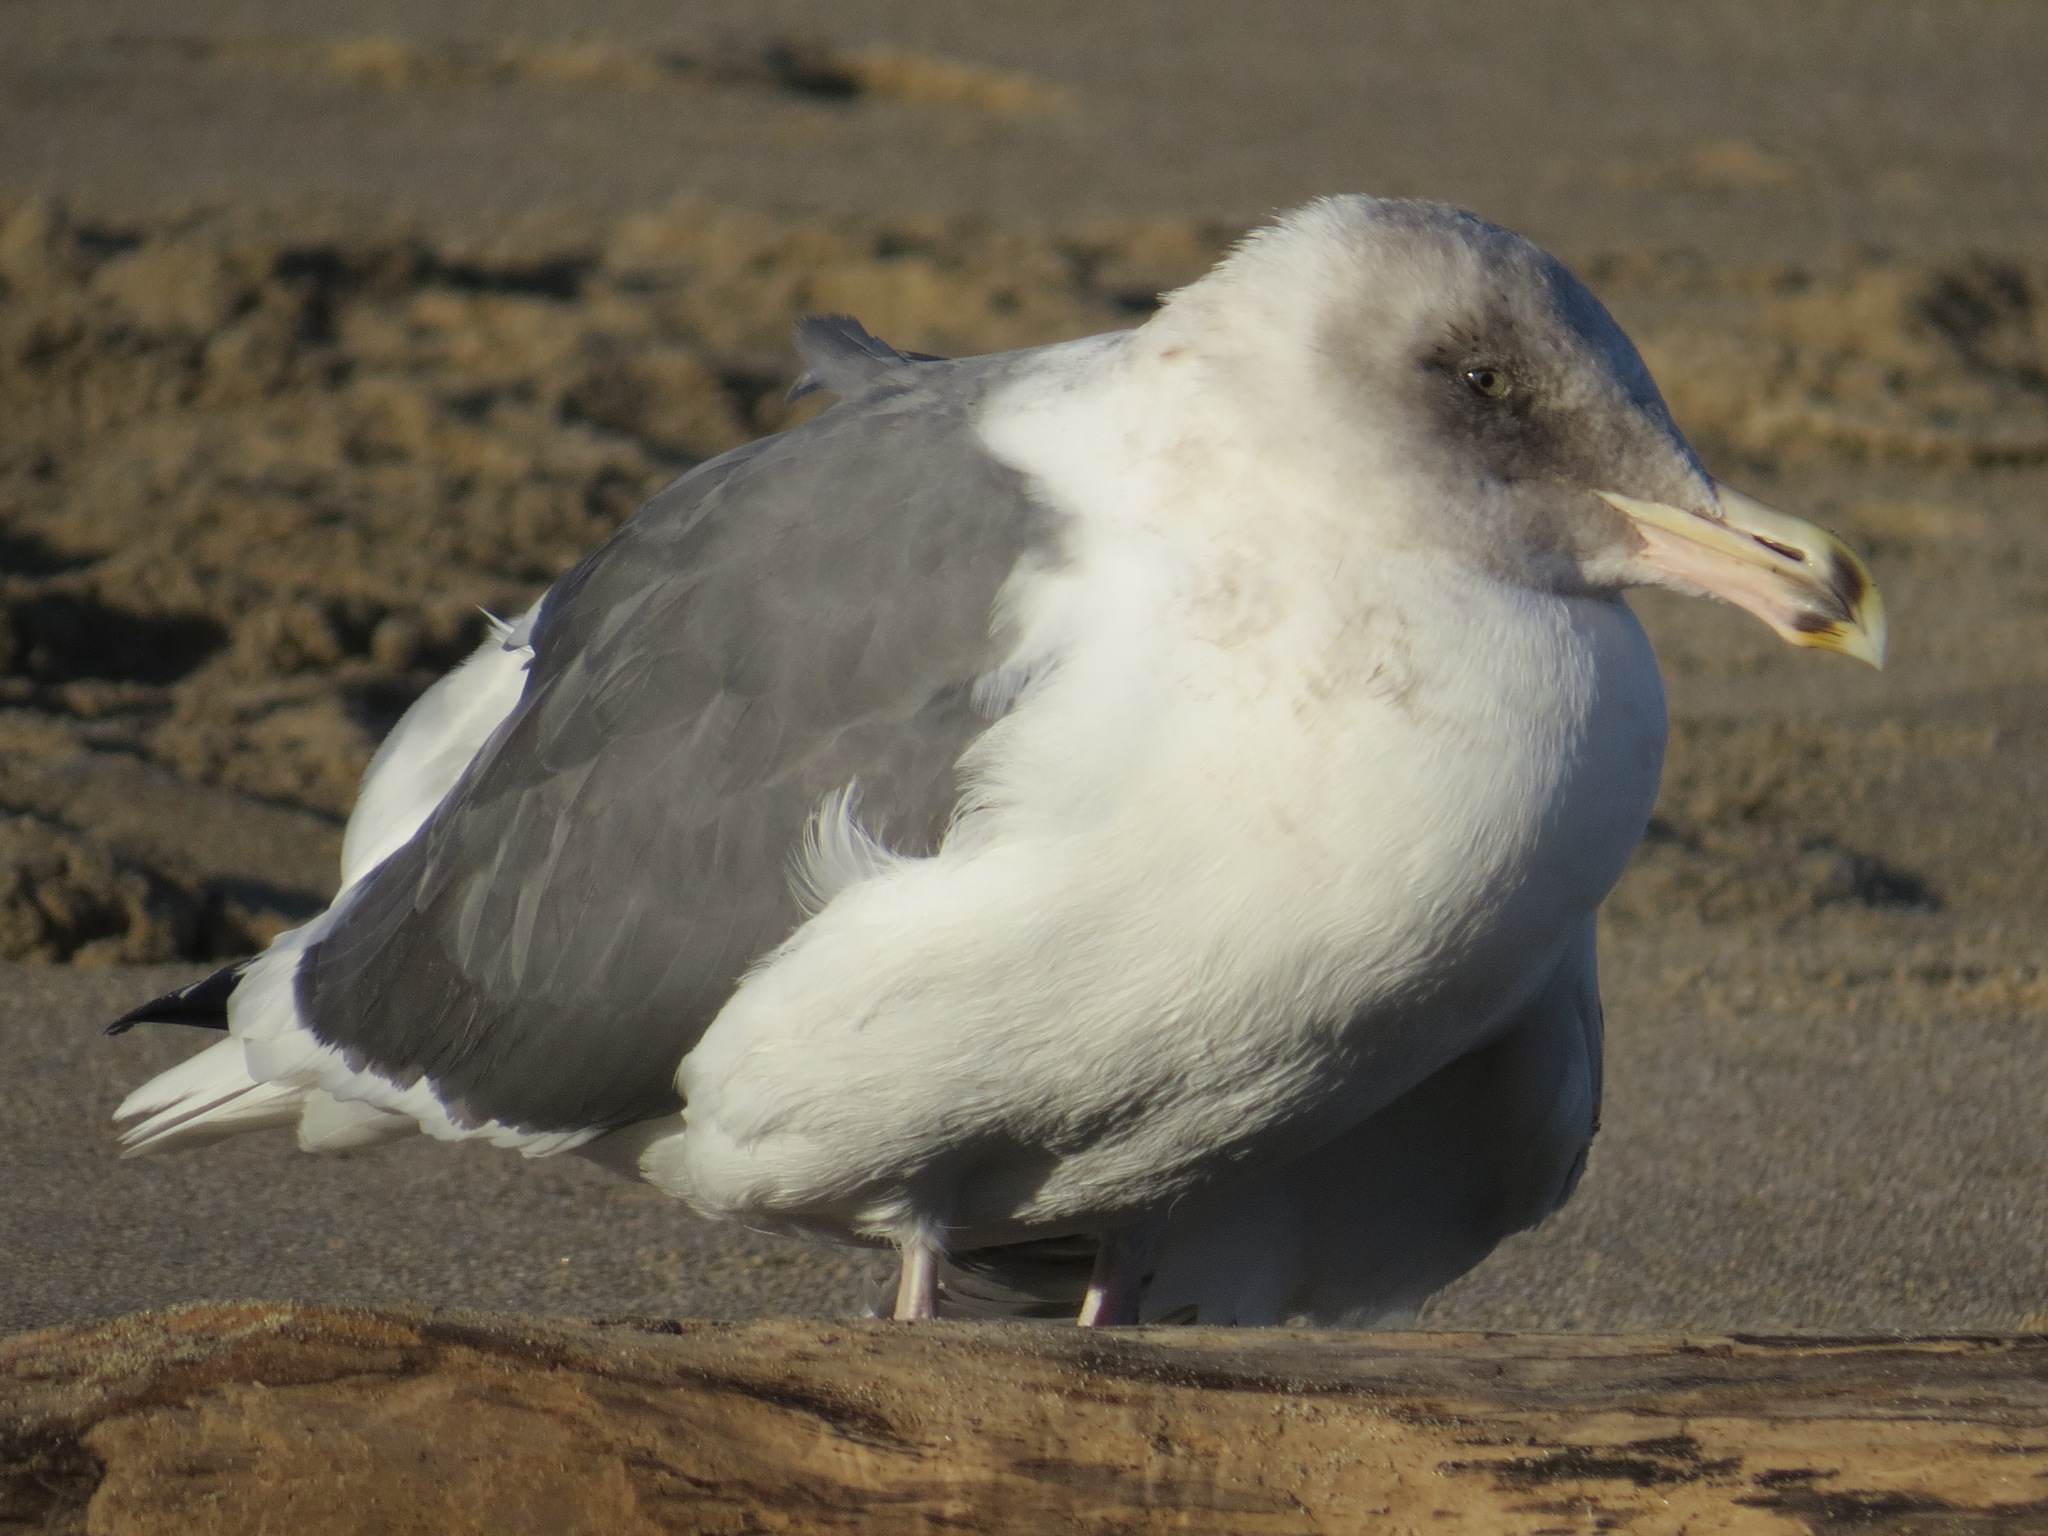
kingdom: Animalia
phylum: Chordata
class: Aves
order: Charadriiformes
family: Laridae
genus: Larus
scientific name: Larus occidentalis
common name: Western gull
